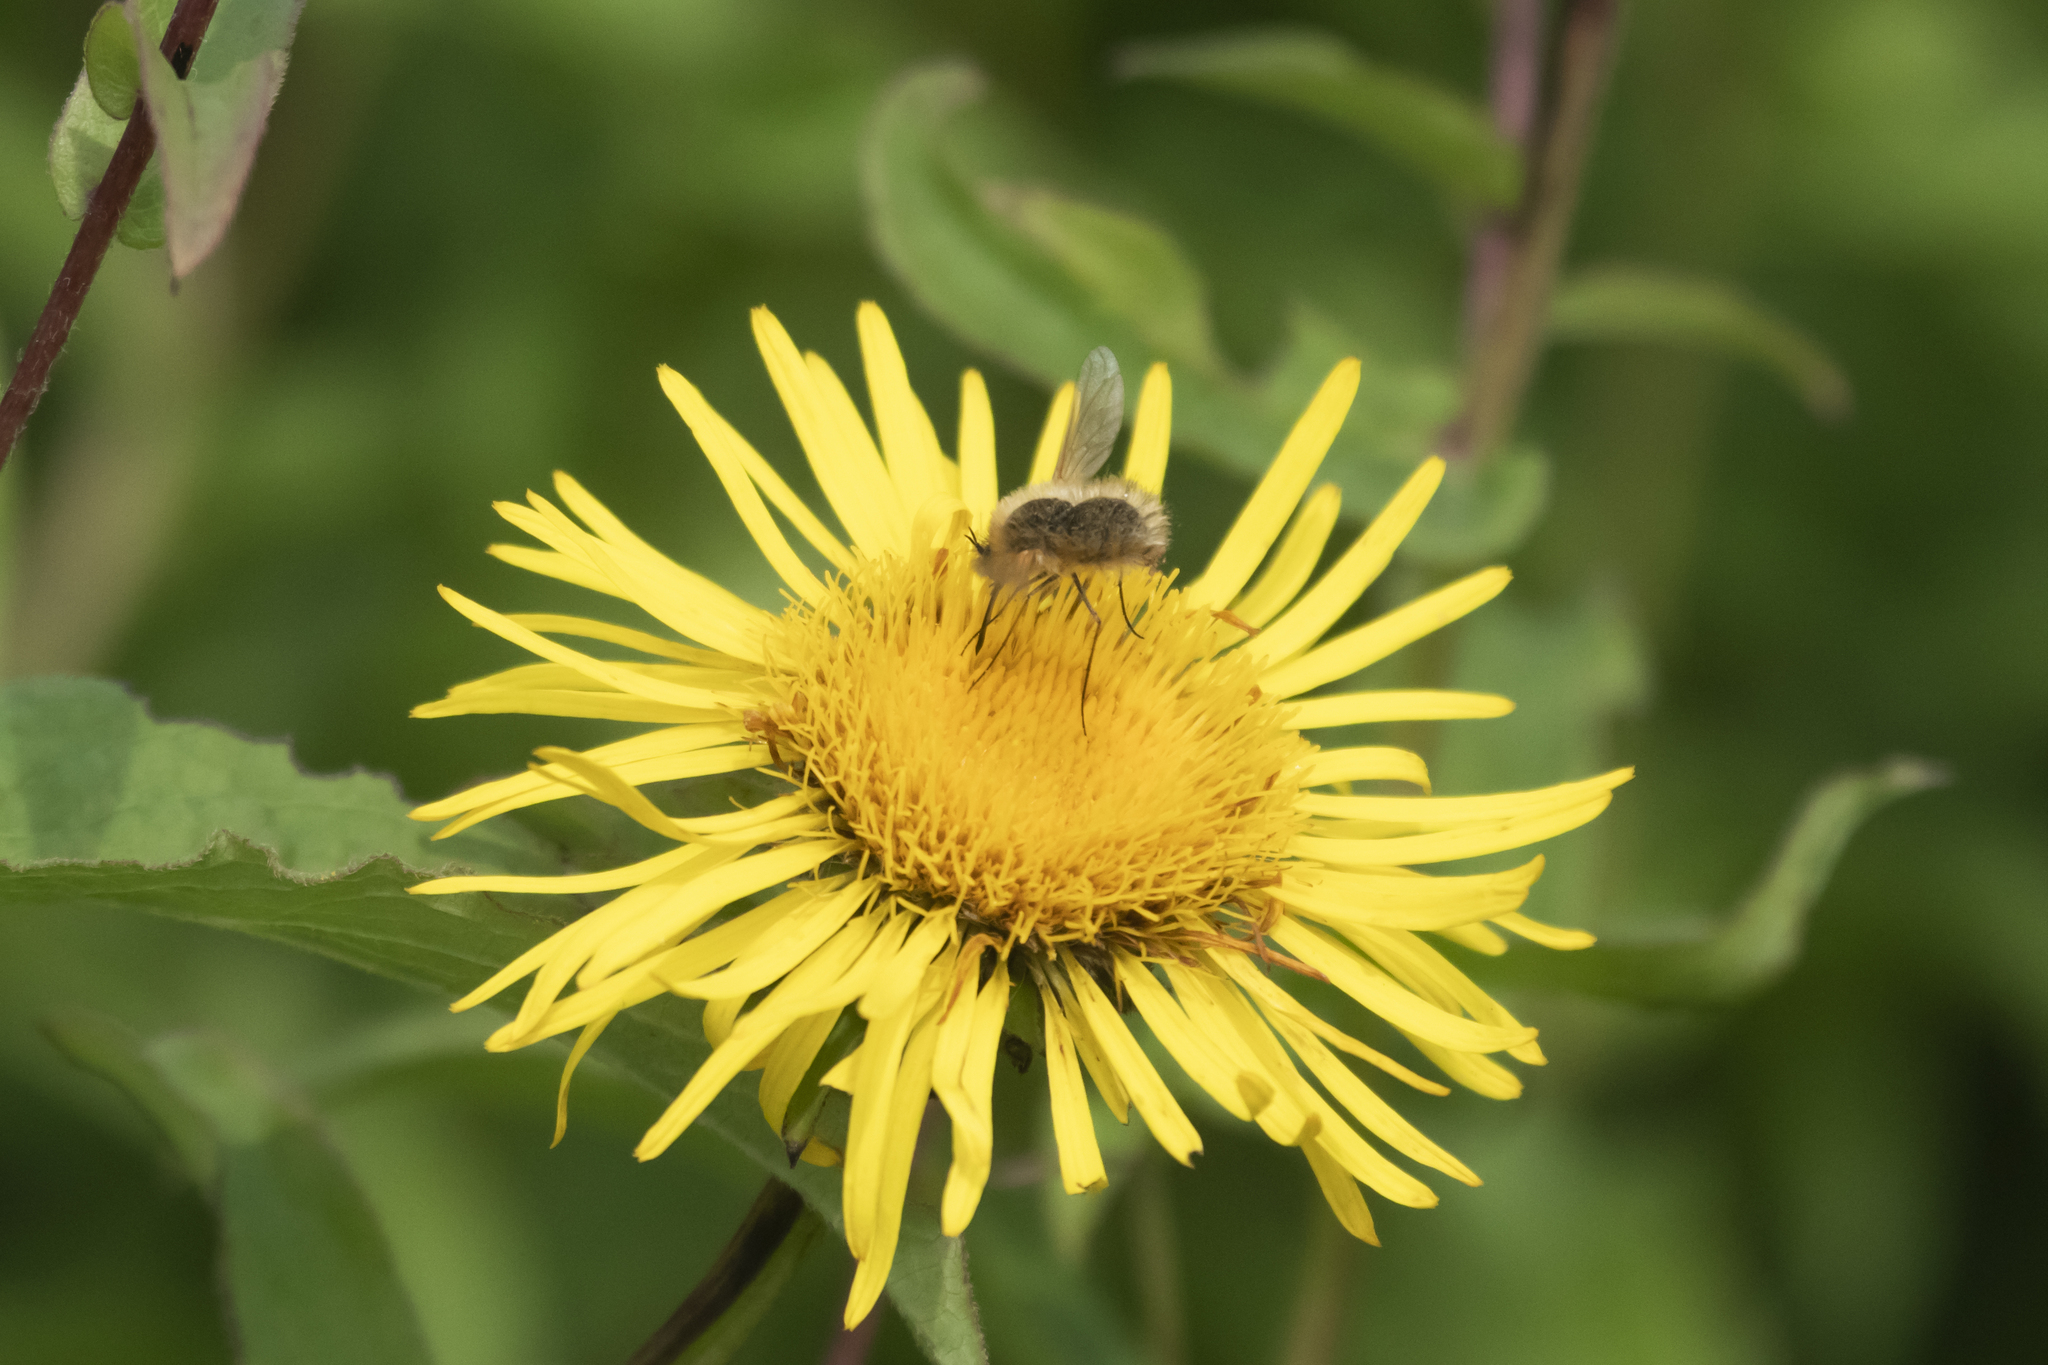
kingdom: Animalia
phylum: Arthropoda
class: Insecta
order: Diptera
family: Bombyliidae
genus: Bombylius
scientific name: Bombylius minor
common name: Heath bee-fly
